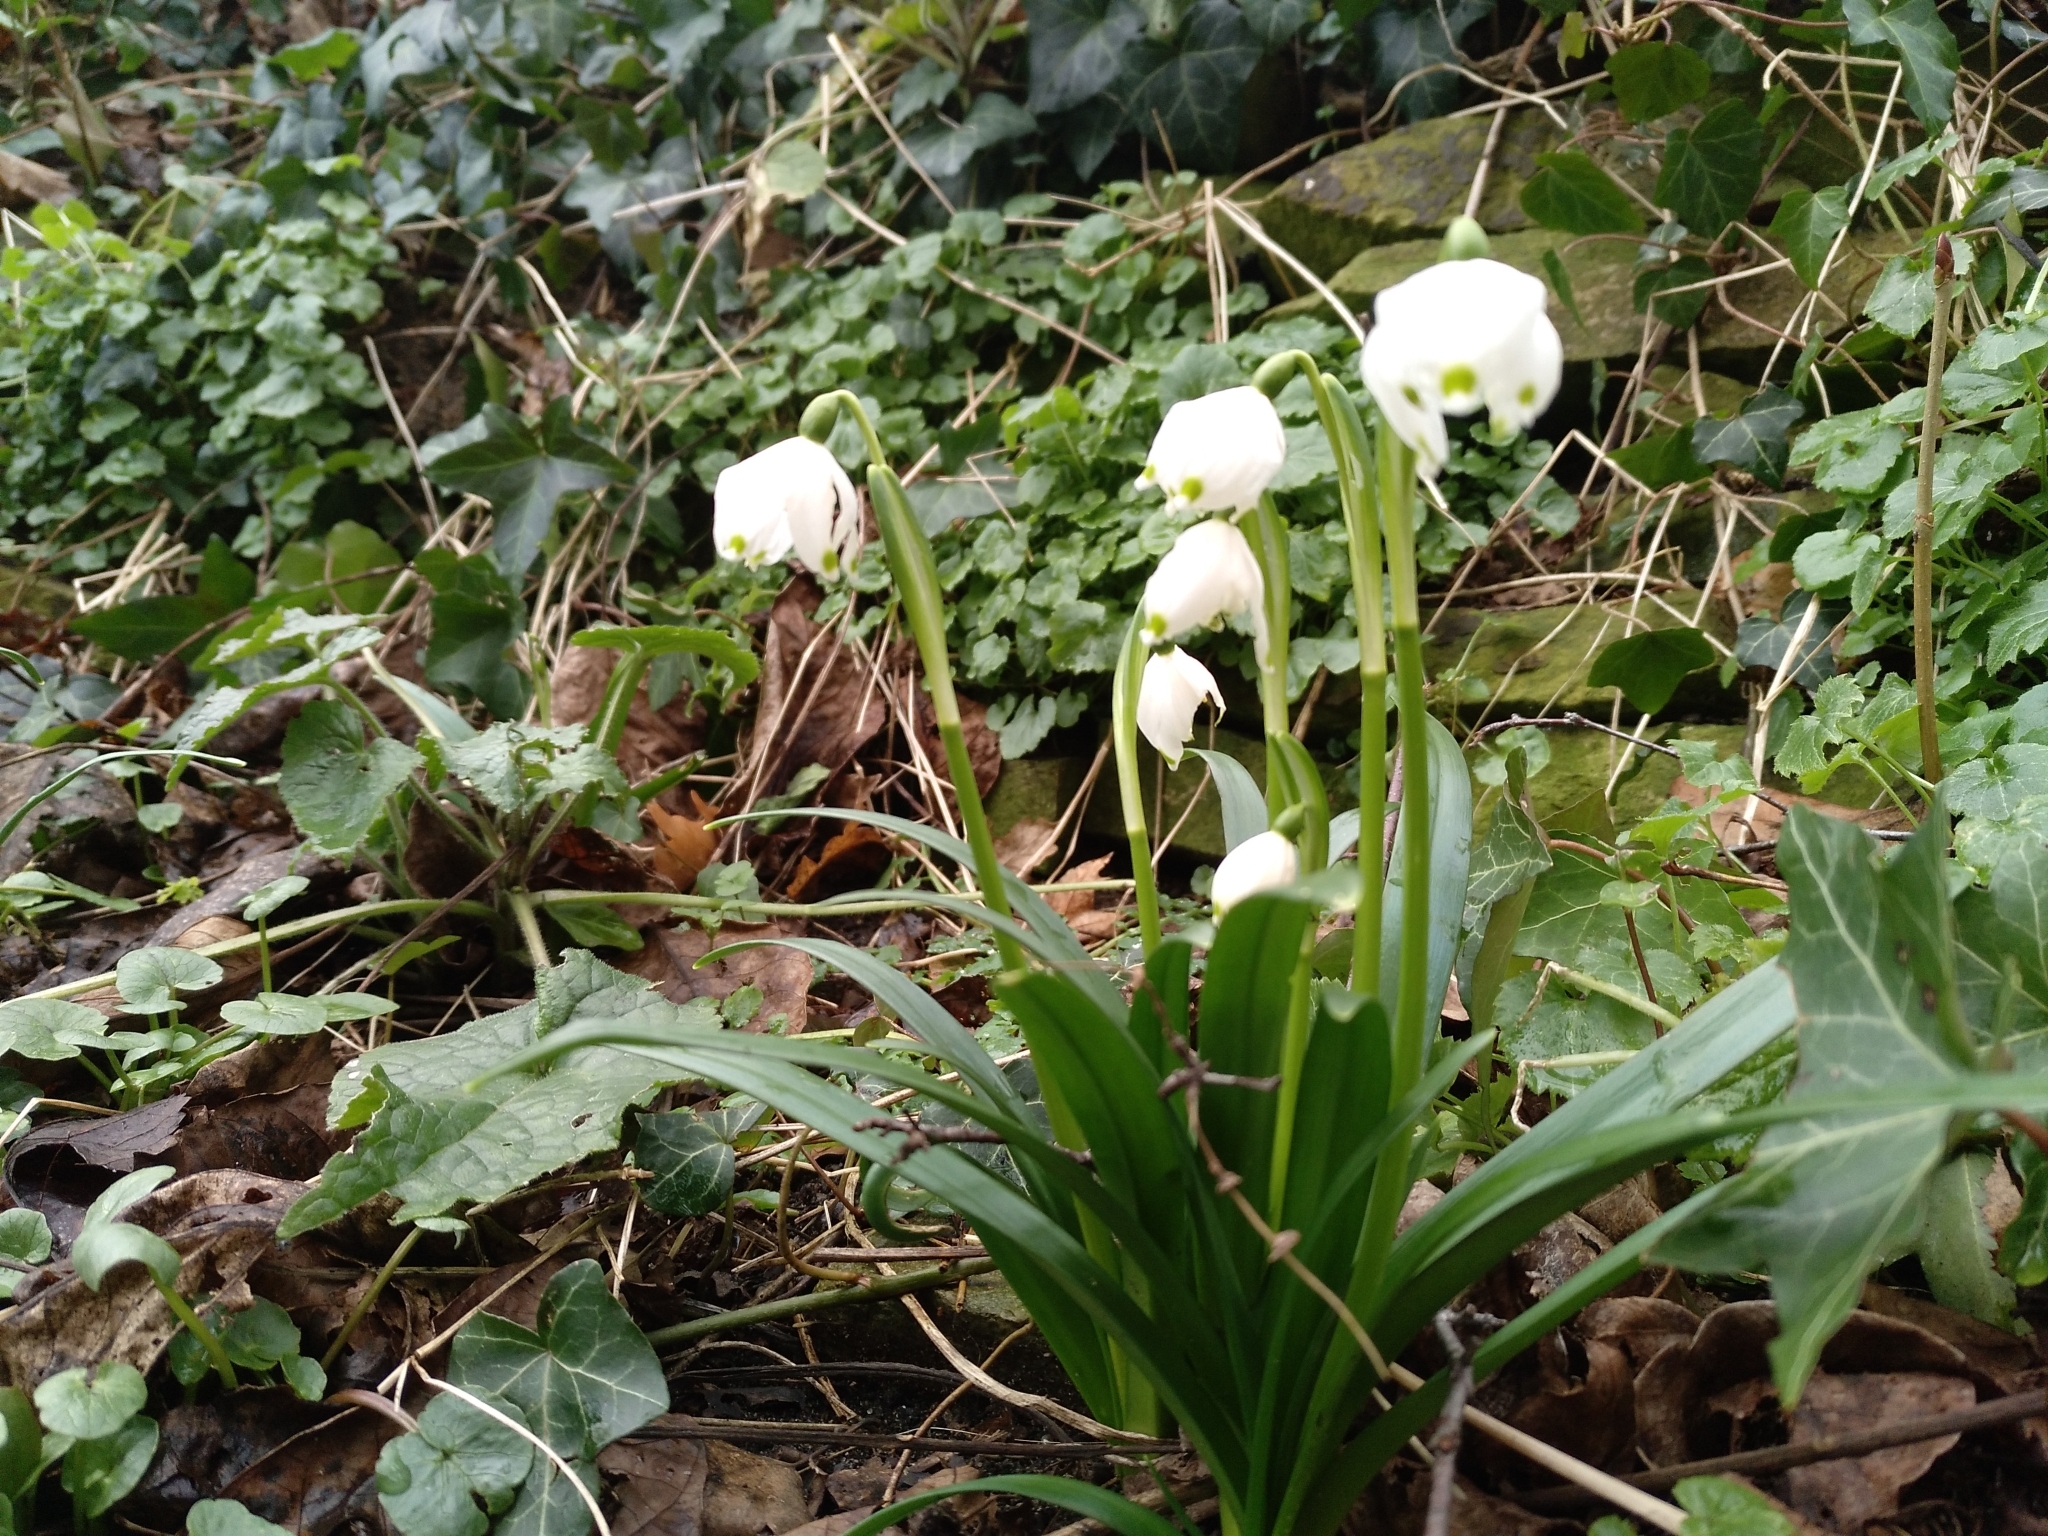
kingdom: Plantae
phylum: Tracheophyta
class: Liliopsida
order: Asparagales
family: Amaryllidaceae
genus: Leucojum
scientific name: Leucojum vernum
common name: Spring snowflake
